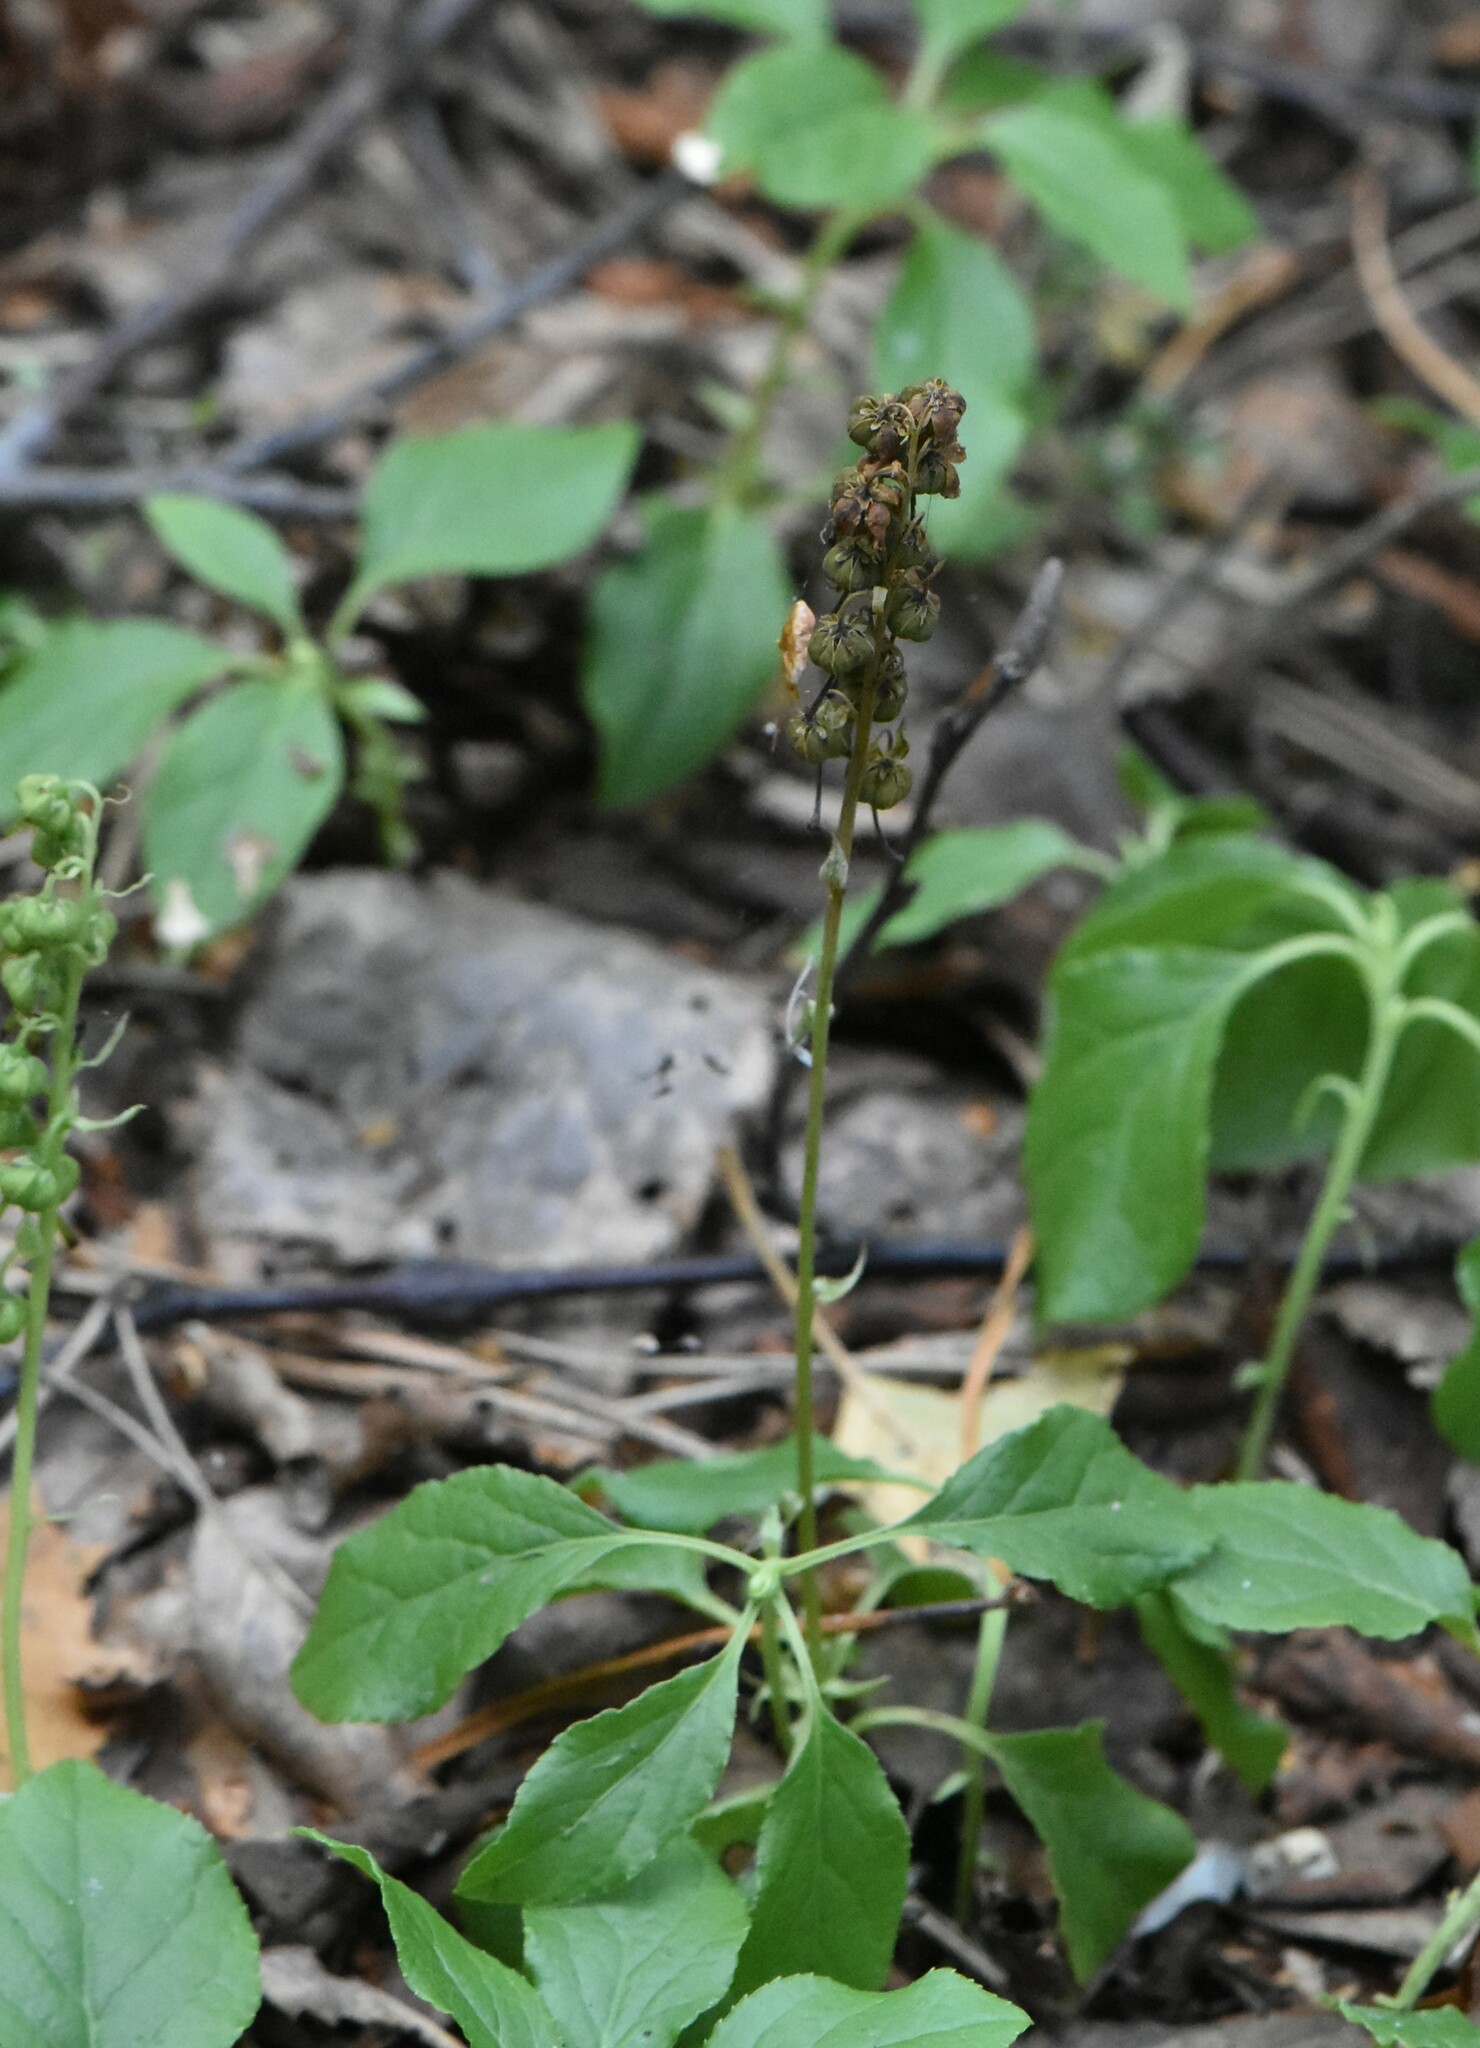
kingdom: Plantae
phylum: Tracheophyta
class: Magnoliopsida
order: Ericales
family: Ericaceae
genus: Orthilia
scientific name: Orthilia secunda
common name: One-sided orthilia
